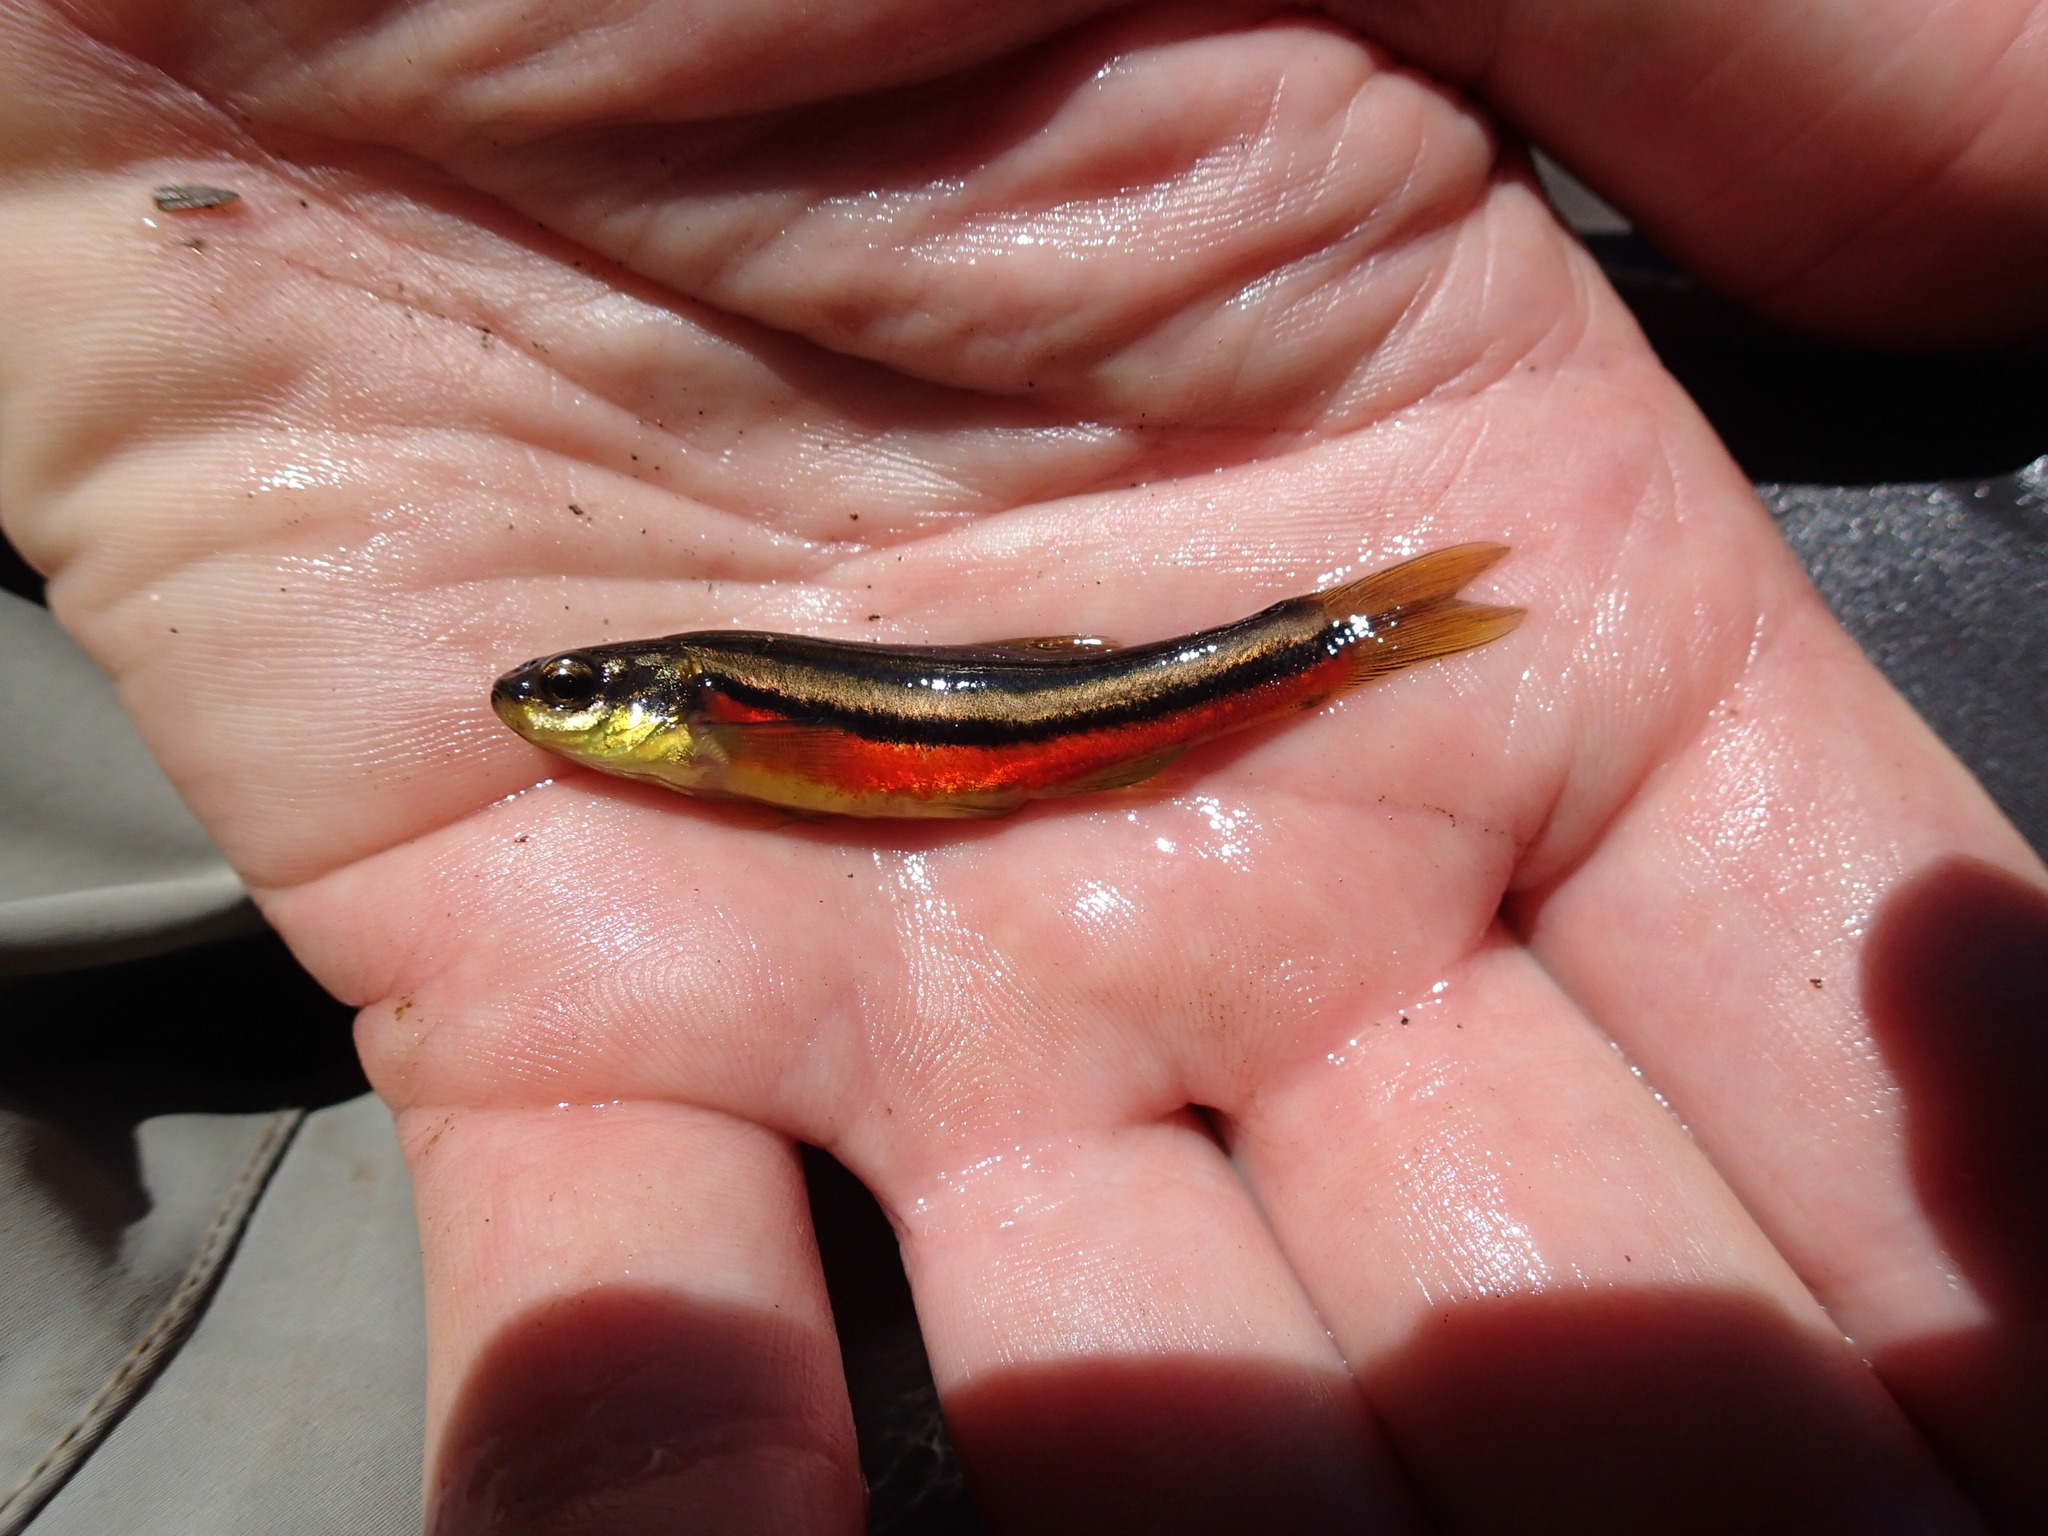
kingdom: Animalia
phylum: Chordata
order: Cypriniformes
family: Cyprinidae
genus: Chrosomus
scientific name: Chrosomus eos
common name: Northern redbelly dace
